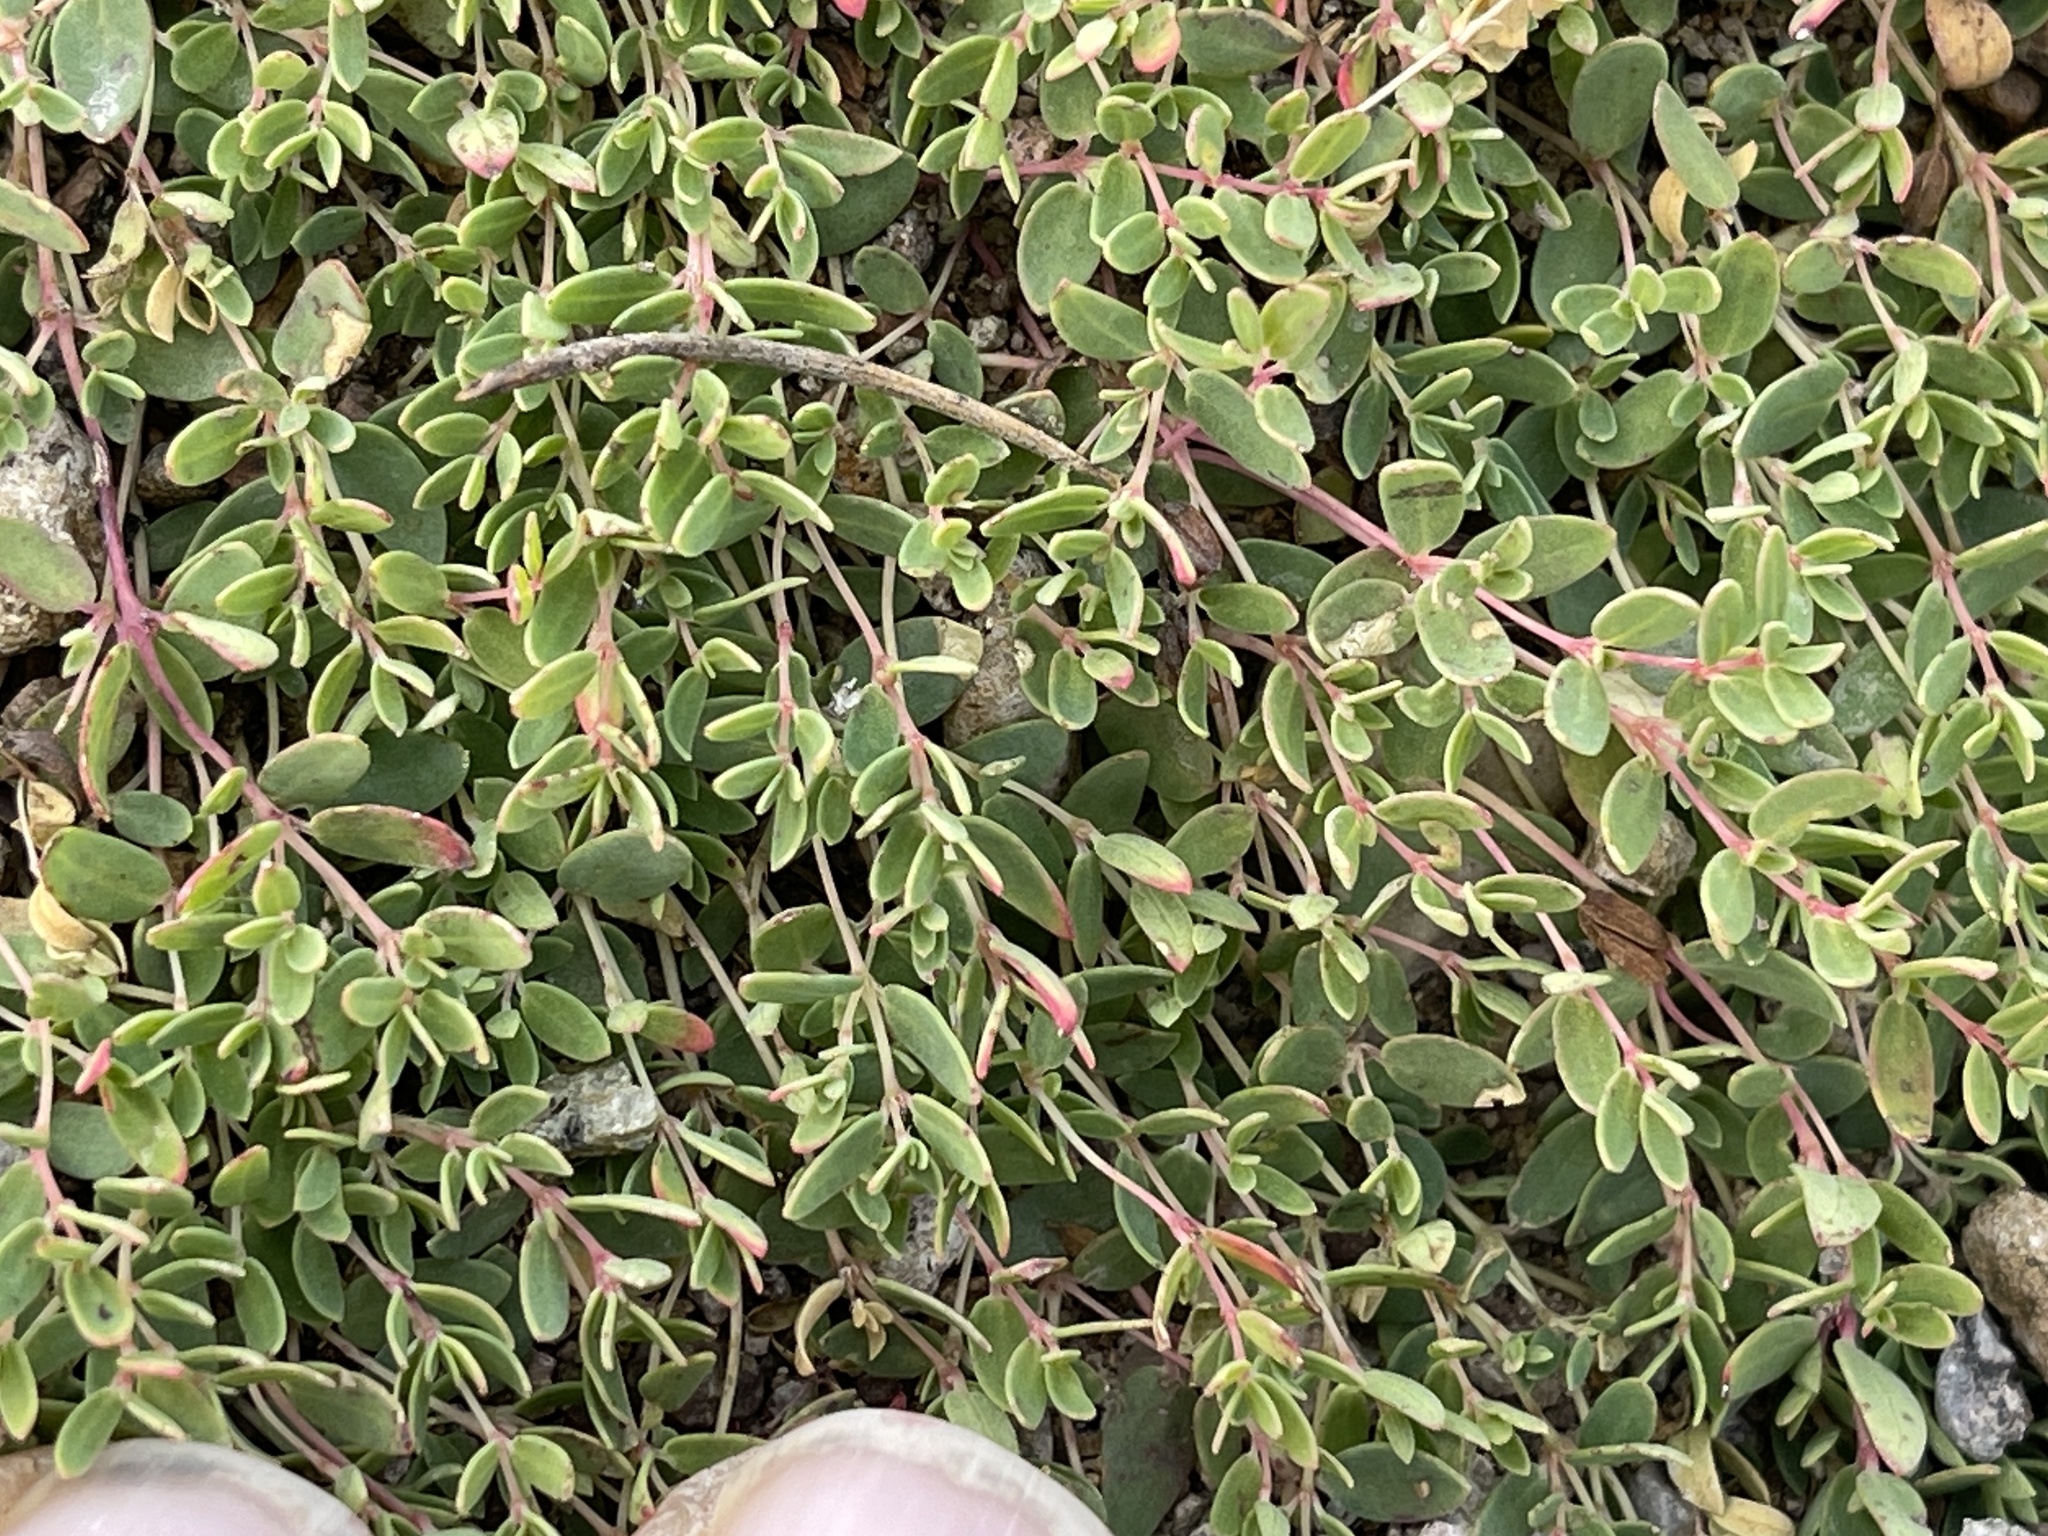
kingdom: Plantae
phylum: Tracheophyta
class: Magnoliopsida
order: Malpighiales
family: Euphorbiaceae
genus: Euphorbia
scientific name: Euphorbia fendleri
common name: Fendler's euphorbia
